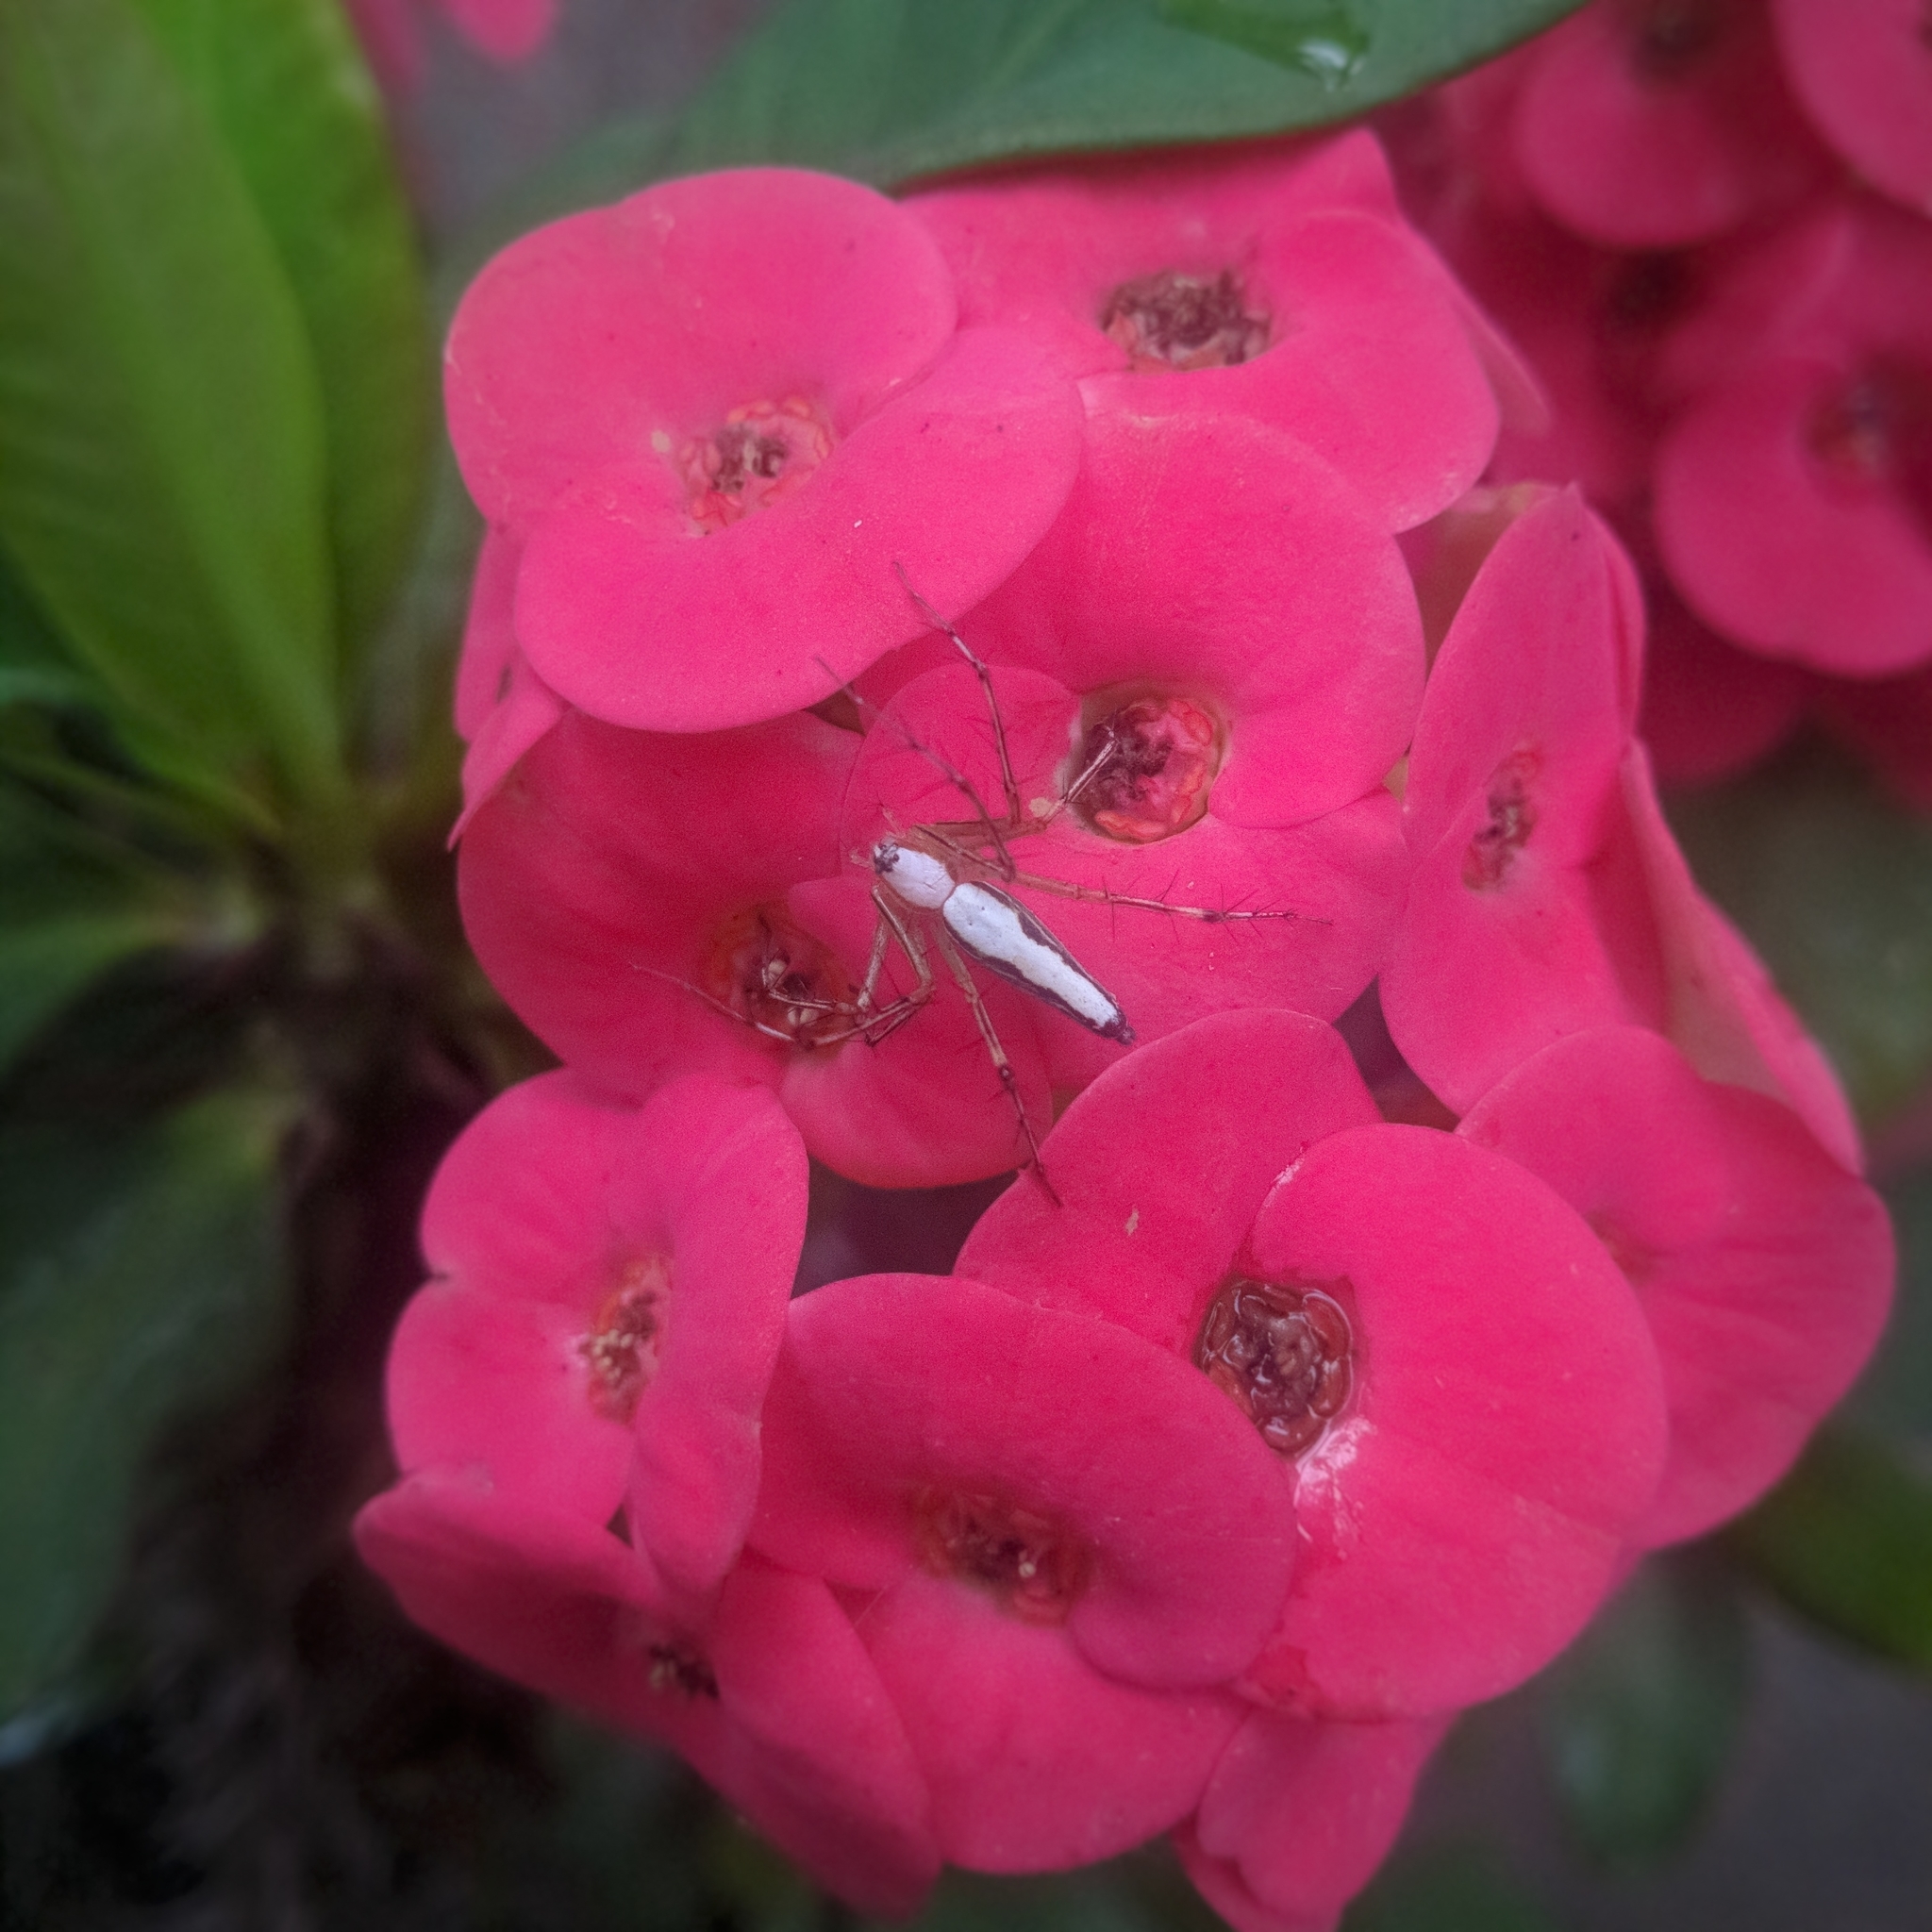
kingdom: Animalia
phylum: Arthropoda
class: Arachnida
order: Araneae
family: Oxyopidae
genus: Oxyopes
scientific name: Oxyopes shweta
